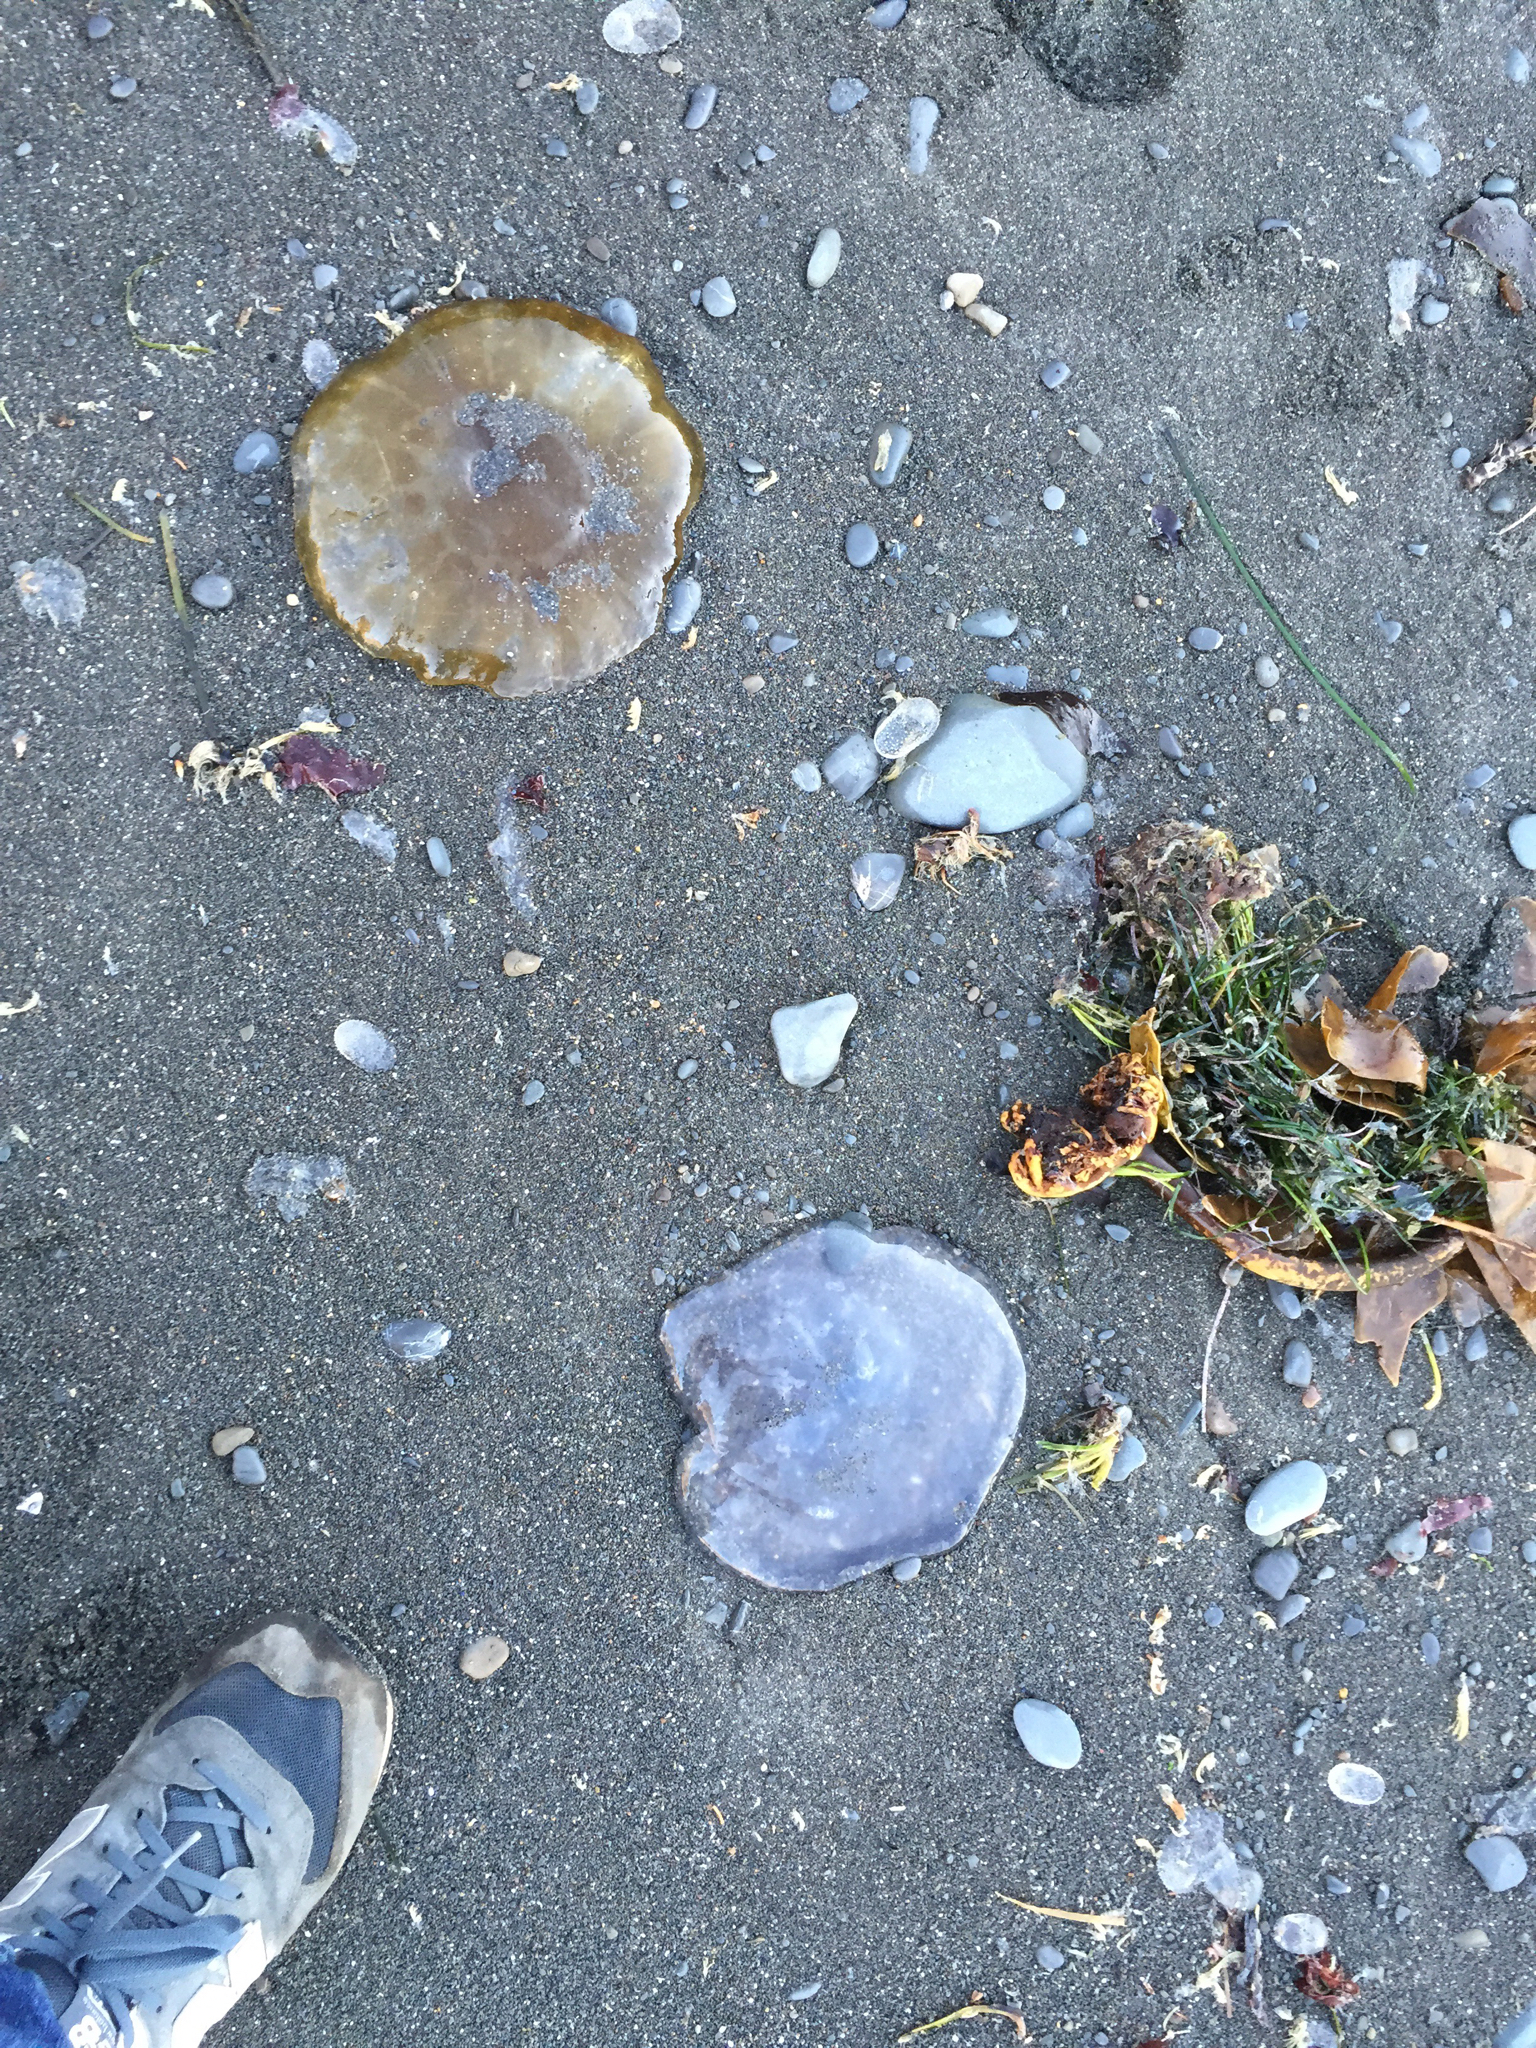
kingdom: Animalia
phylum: Cnidaria
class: Scyphozoa
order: Semaeostomeae
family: Ulmaridae
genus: Aurelia
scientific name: Aurelia labiata
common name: Pacific moon jelly
